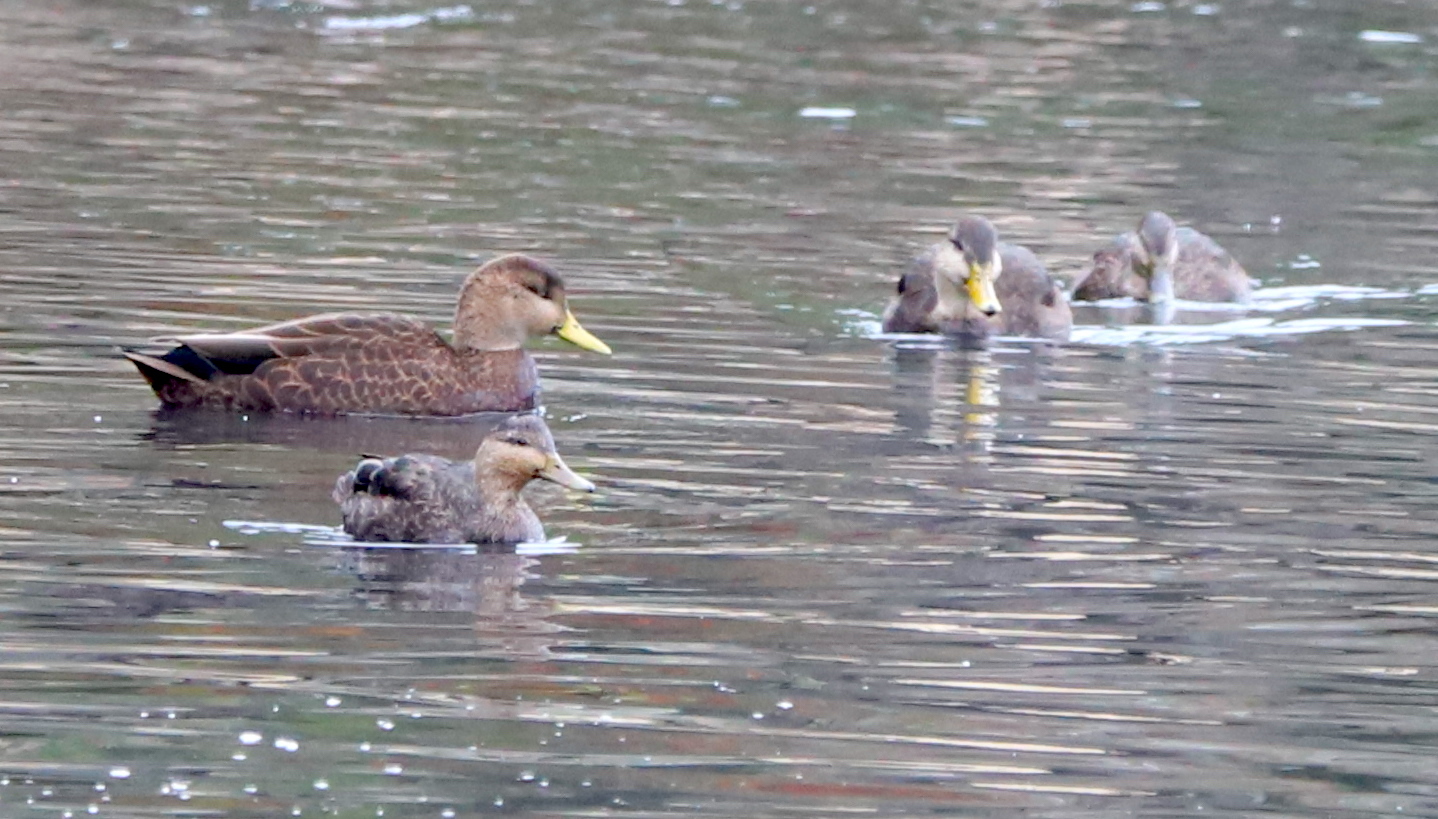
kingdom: Animalia
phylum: Chordata
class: Aves
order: Anseriformes
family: Anatidae
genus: Anas
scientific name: Anas rubripes
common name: American black duck
